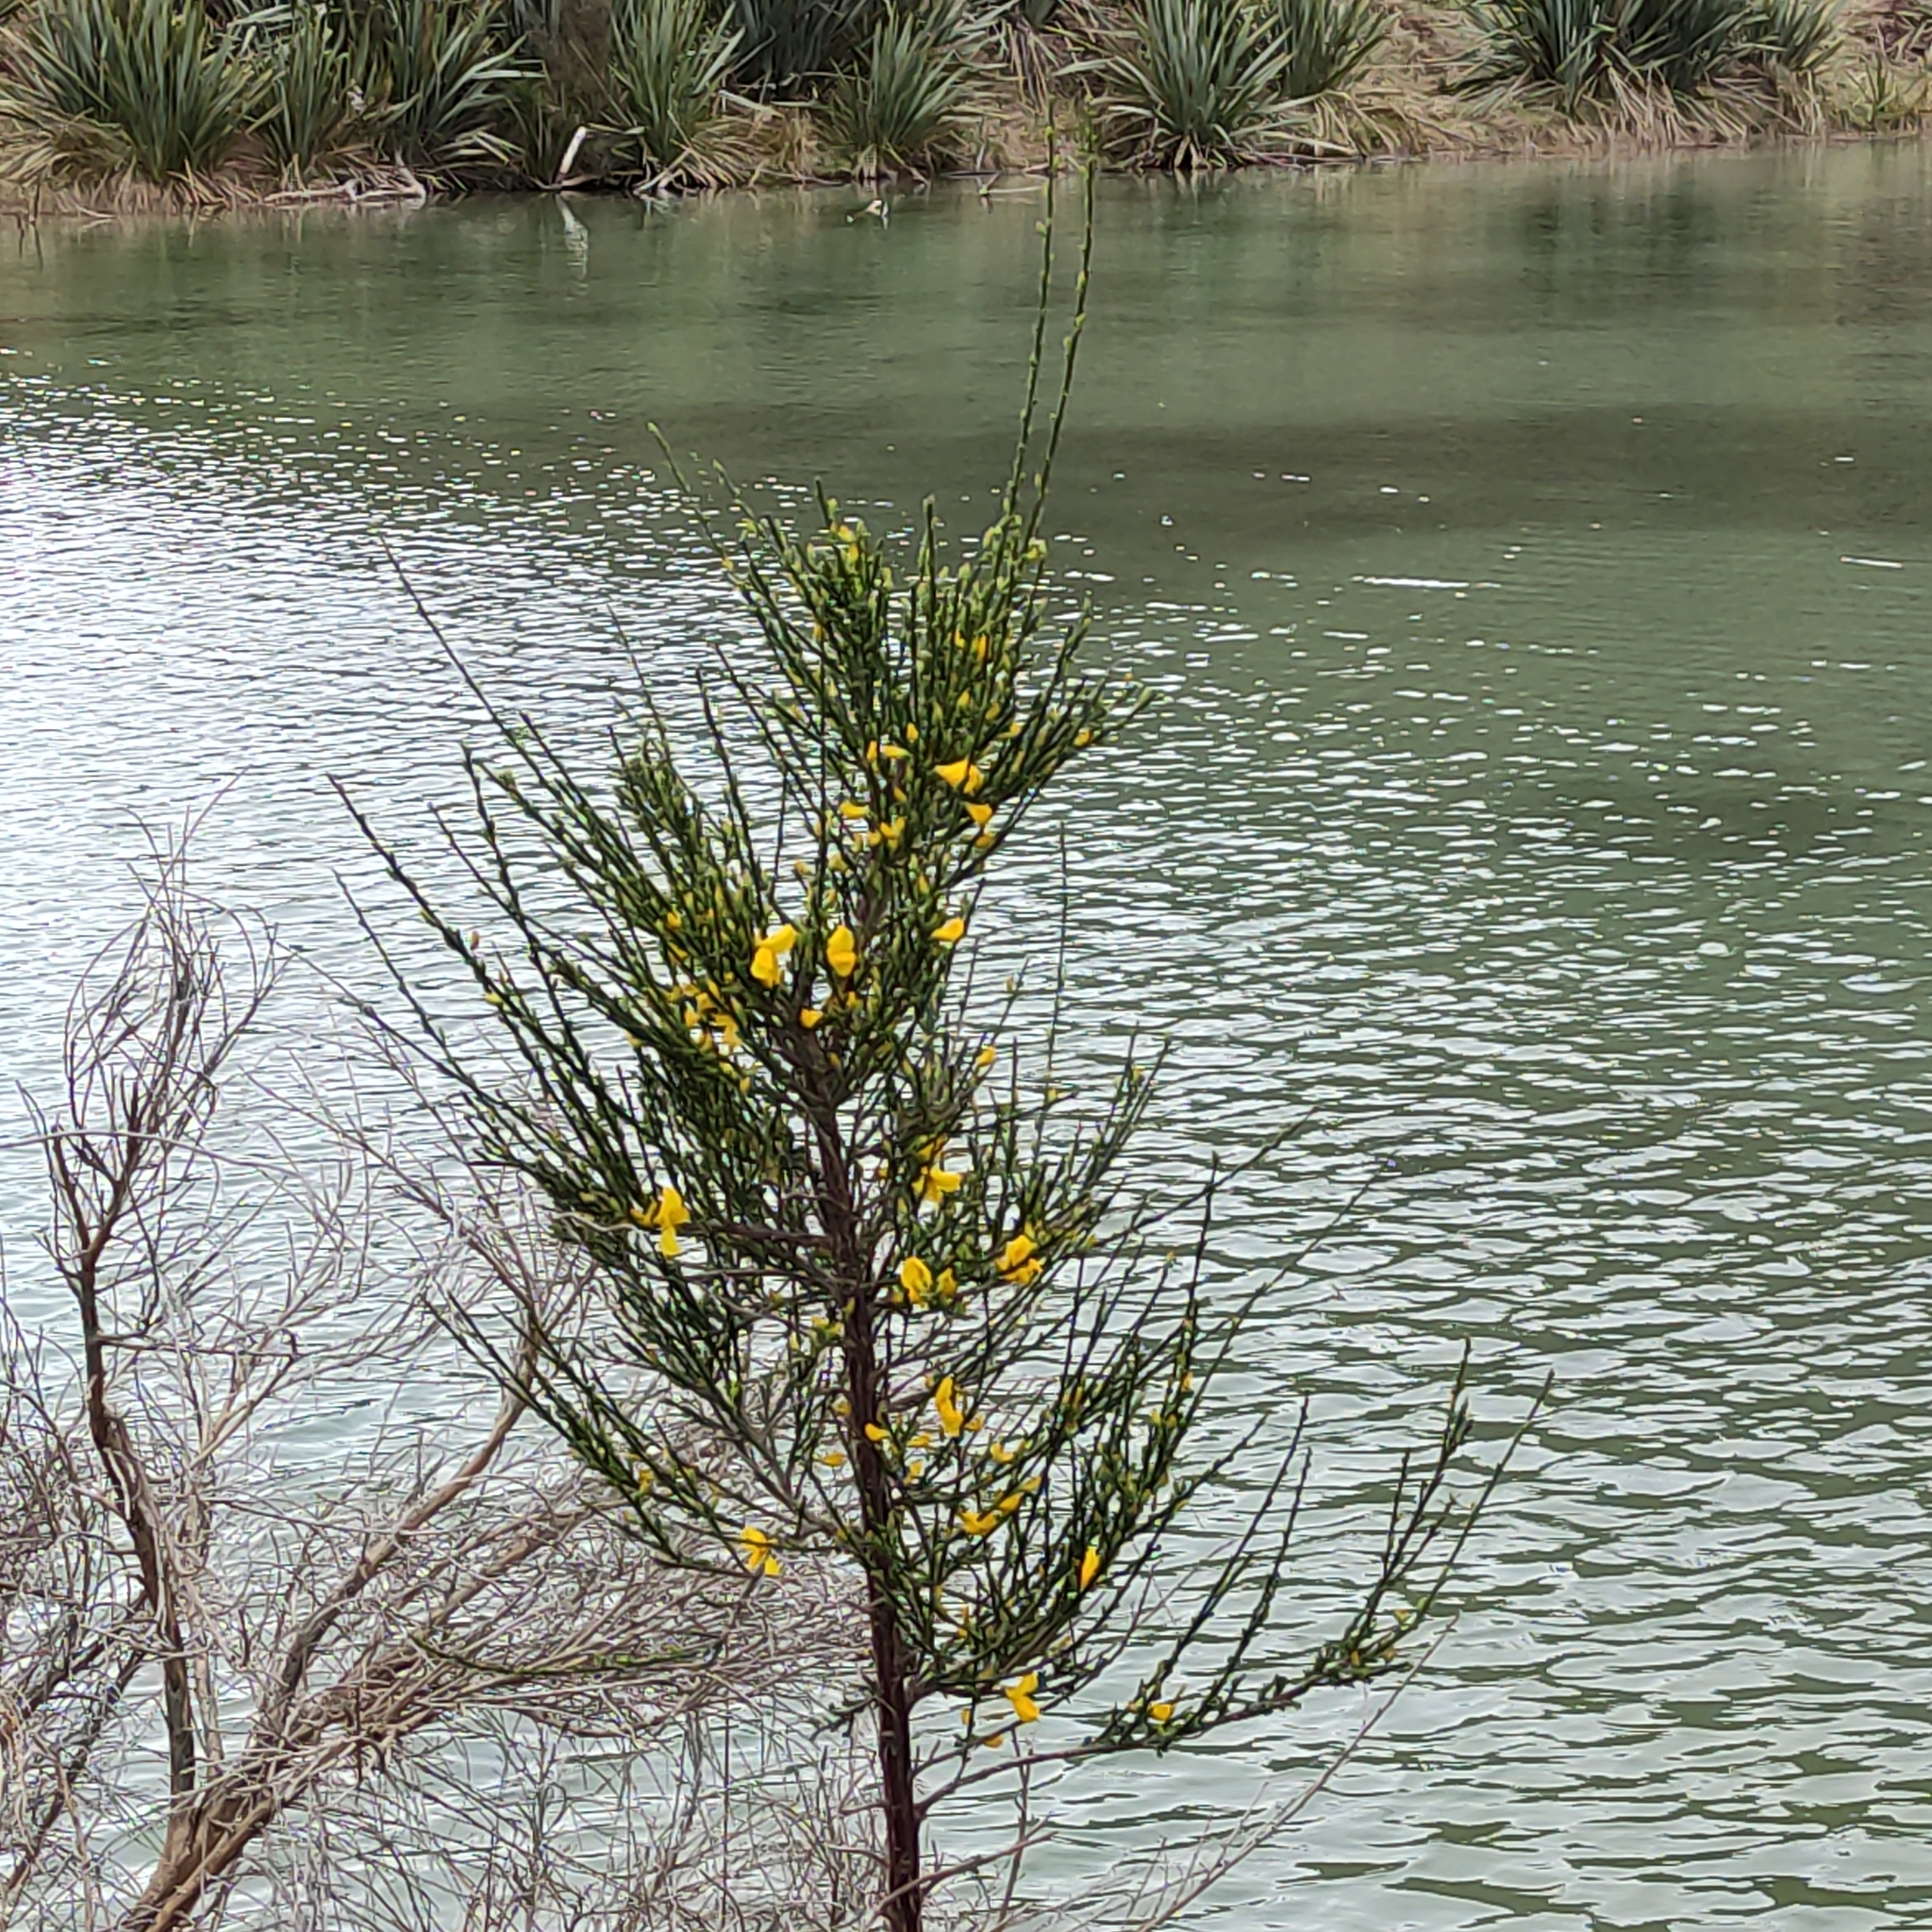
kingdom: Plantae
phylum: Tracheophyta
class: Magnoliopsida
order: Fabales
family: Fabaceae
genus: Cytisus
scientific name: Cytisus scoparius
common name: Scotch broom
